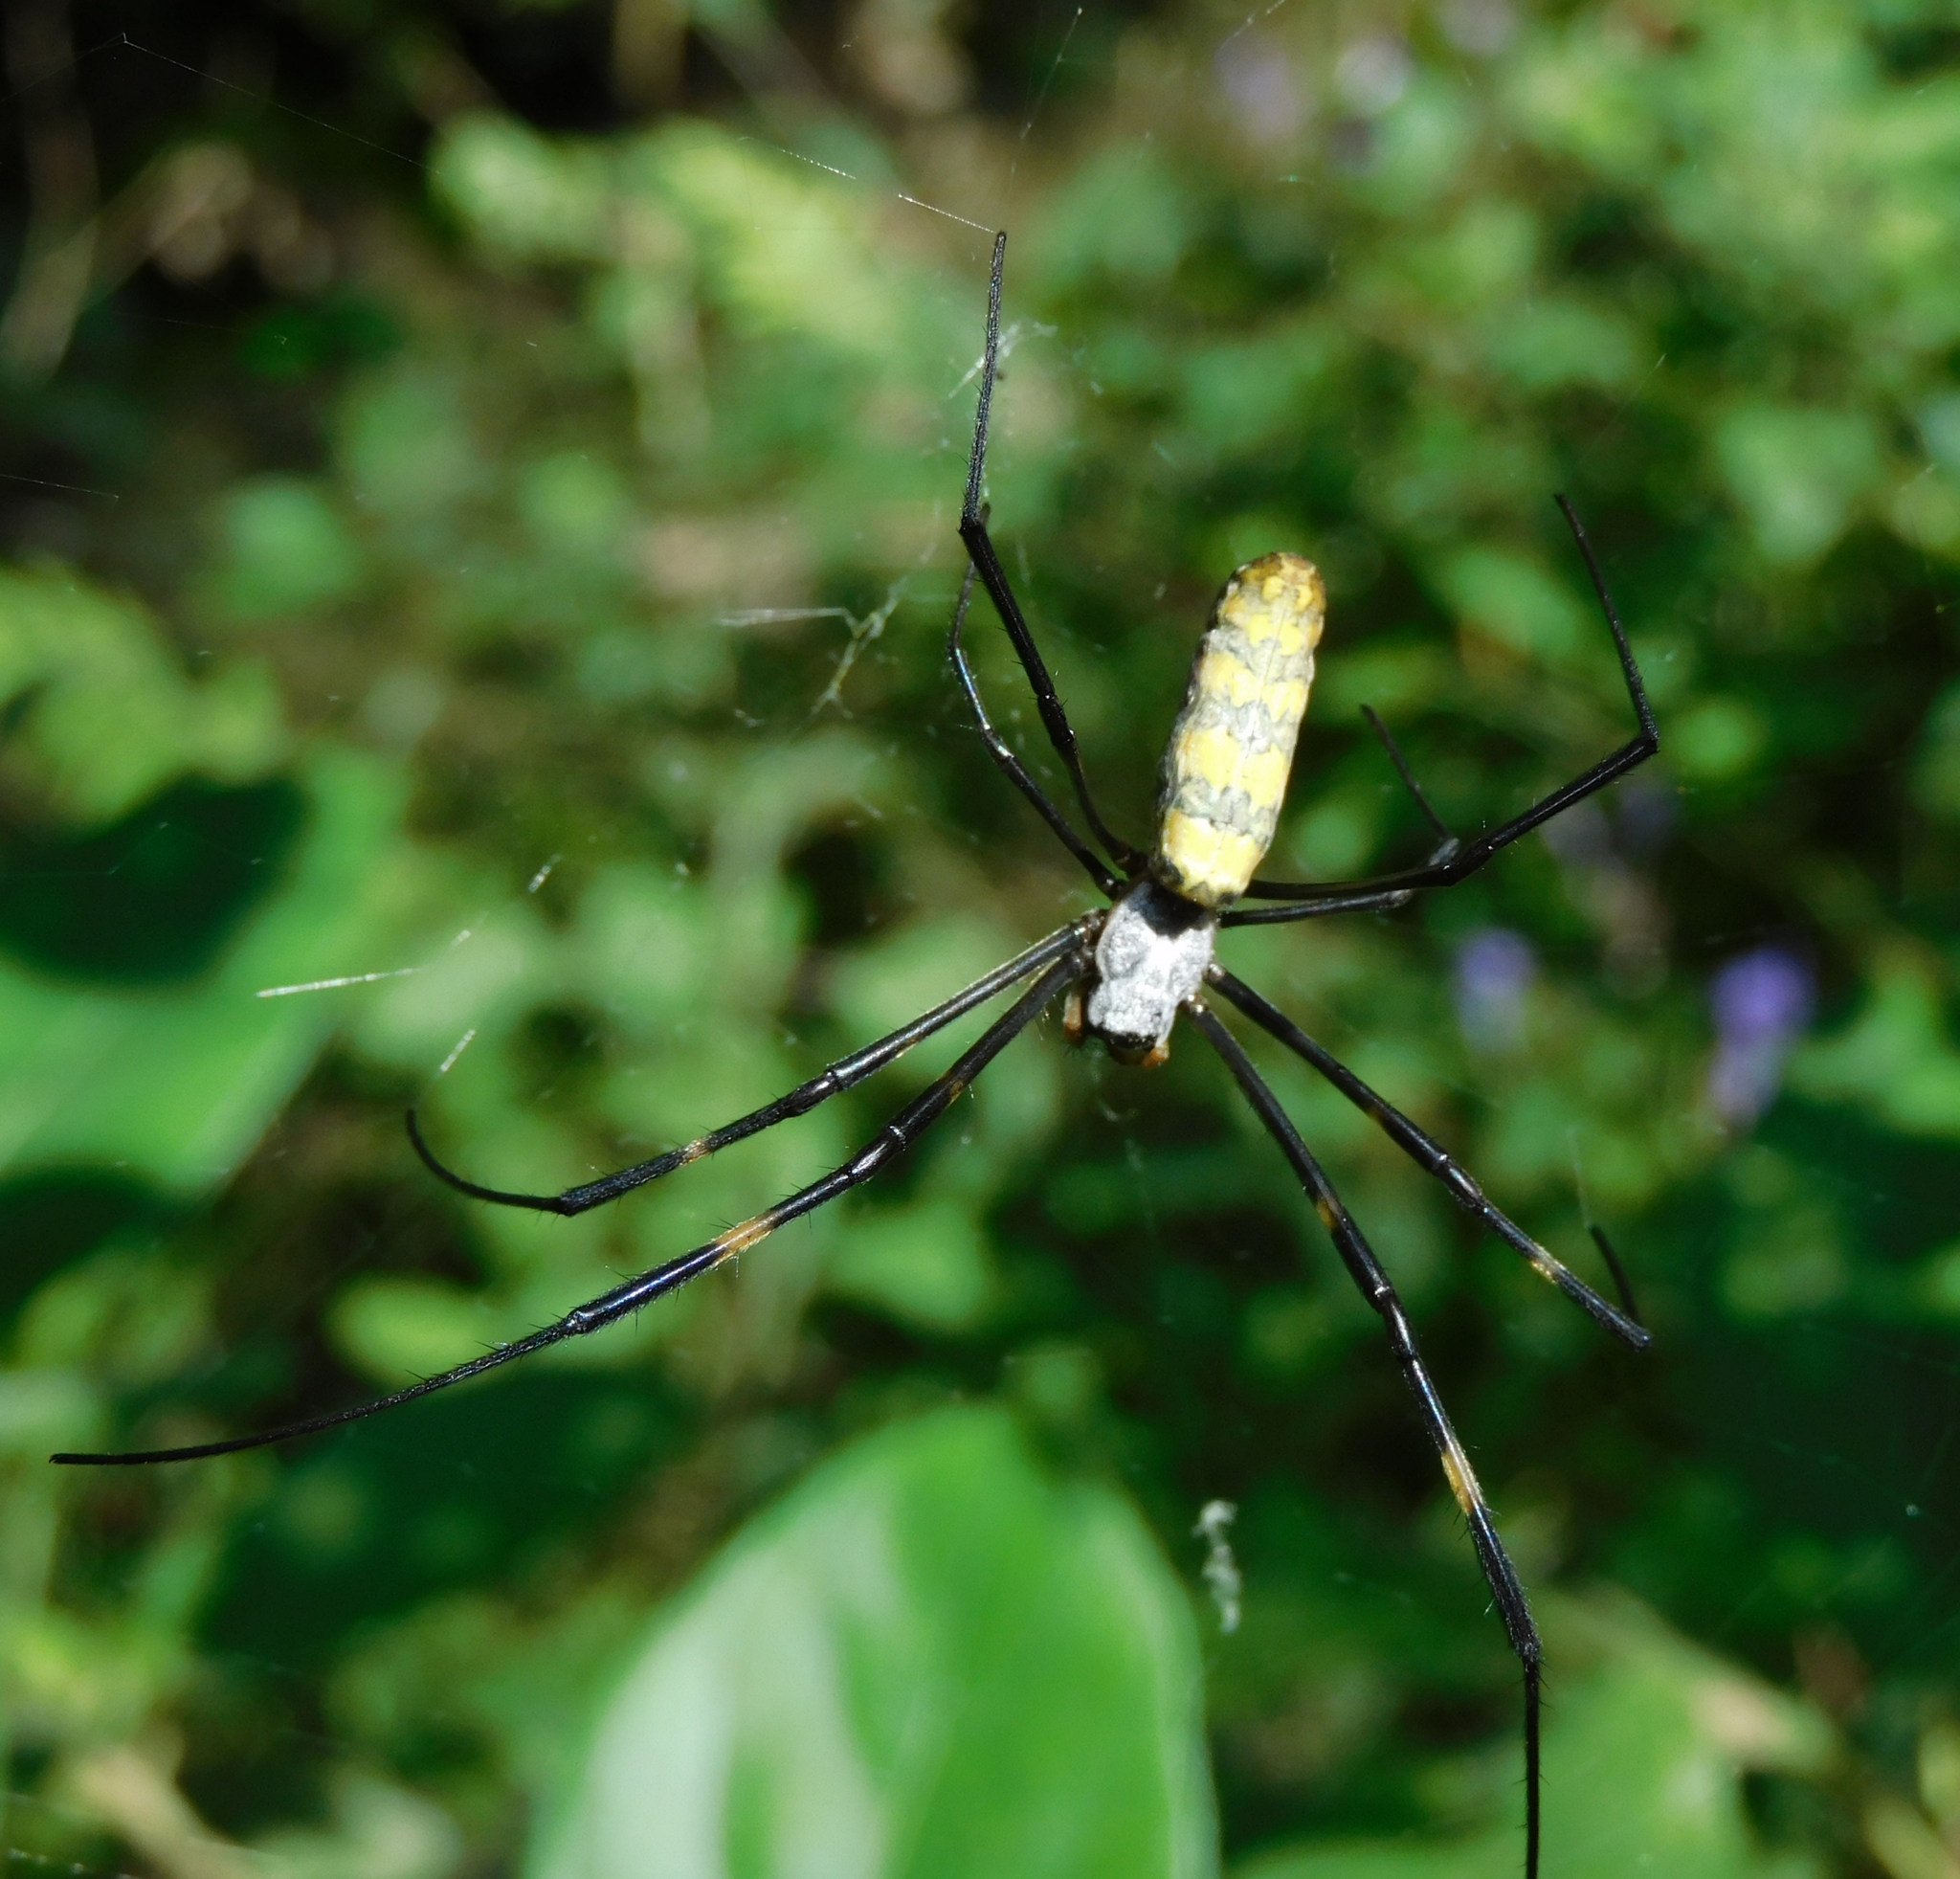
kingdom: Animalia
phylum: Arthropoda
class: Arachnida
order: Araneae
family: Araneidae
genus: Trichonephila
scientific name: Trichonephila clavata
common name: Jorō spider
